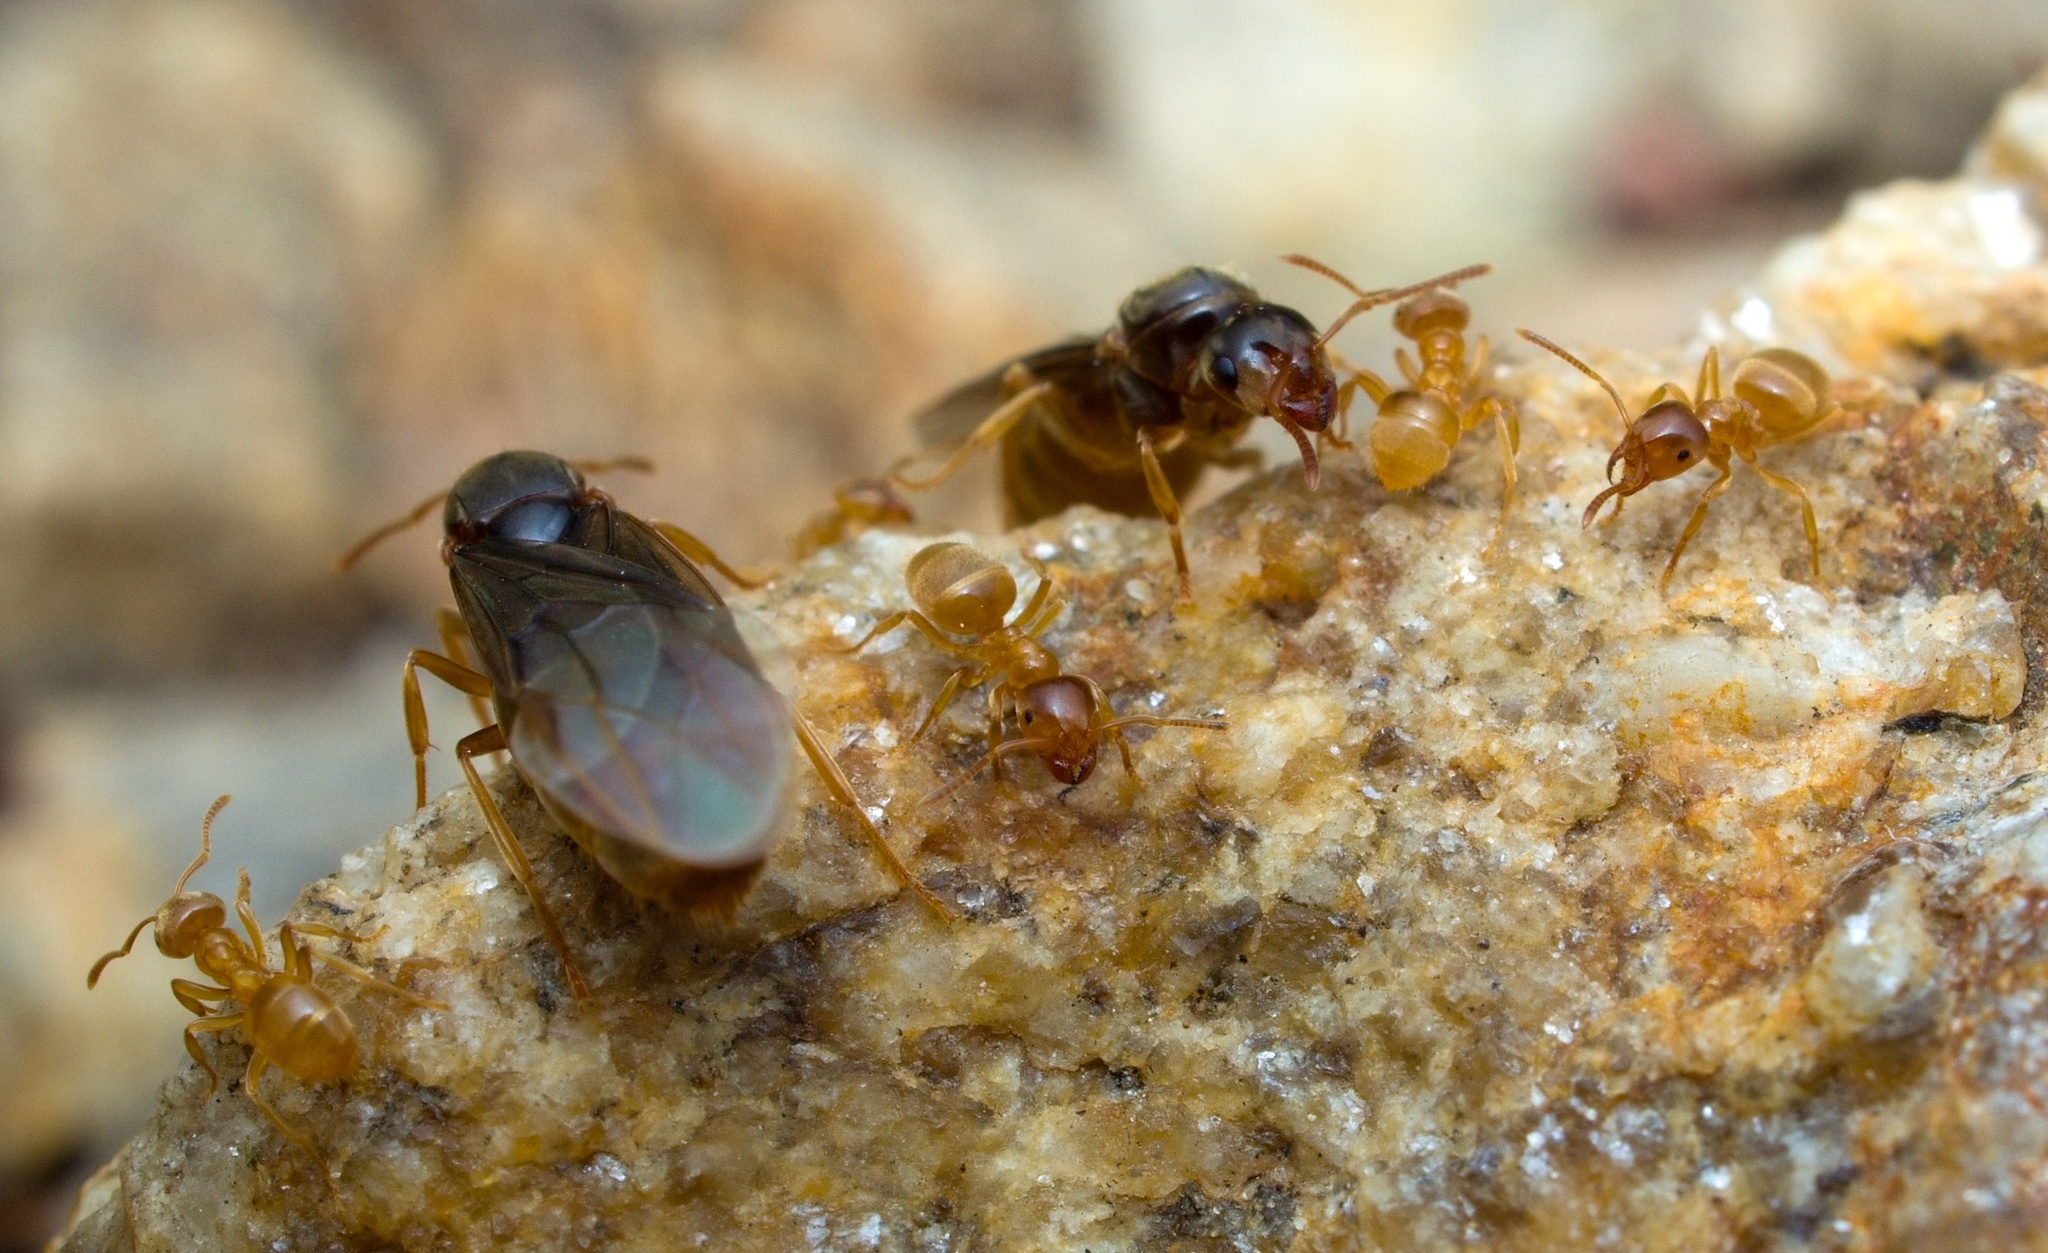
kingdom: Animalia
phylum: Arthropoda
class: Insecta
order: Hymenoptera
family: Formicidae
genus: Lasius
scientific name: Lasius flavus
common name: Blond field ant
